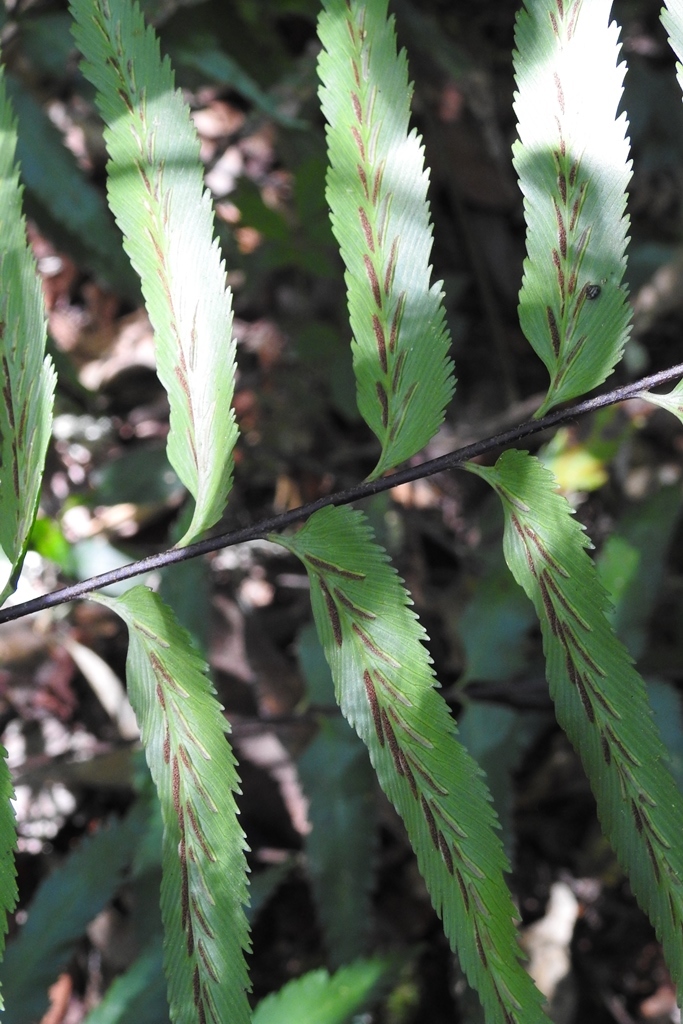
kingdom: Plantae
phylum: Tracheophyta
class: Polypodiopsida
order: Polypodiales
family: Aspleniaceae
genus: Asplenium
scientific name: Asplenium serra
